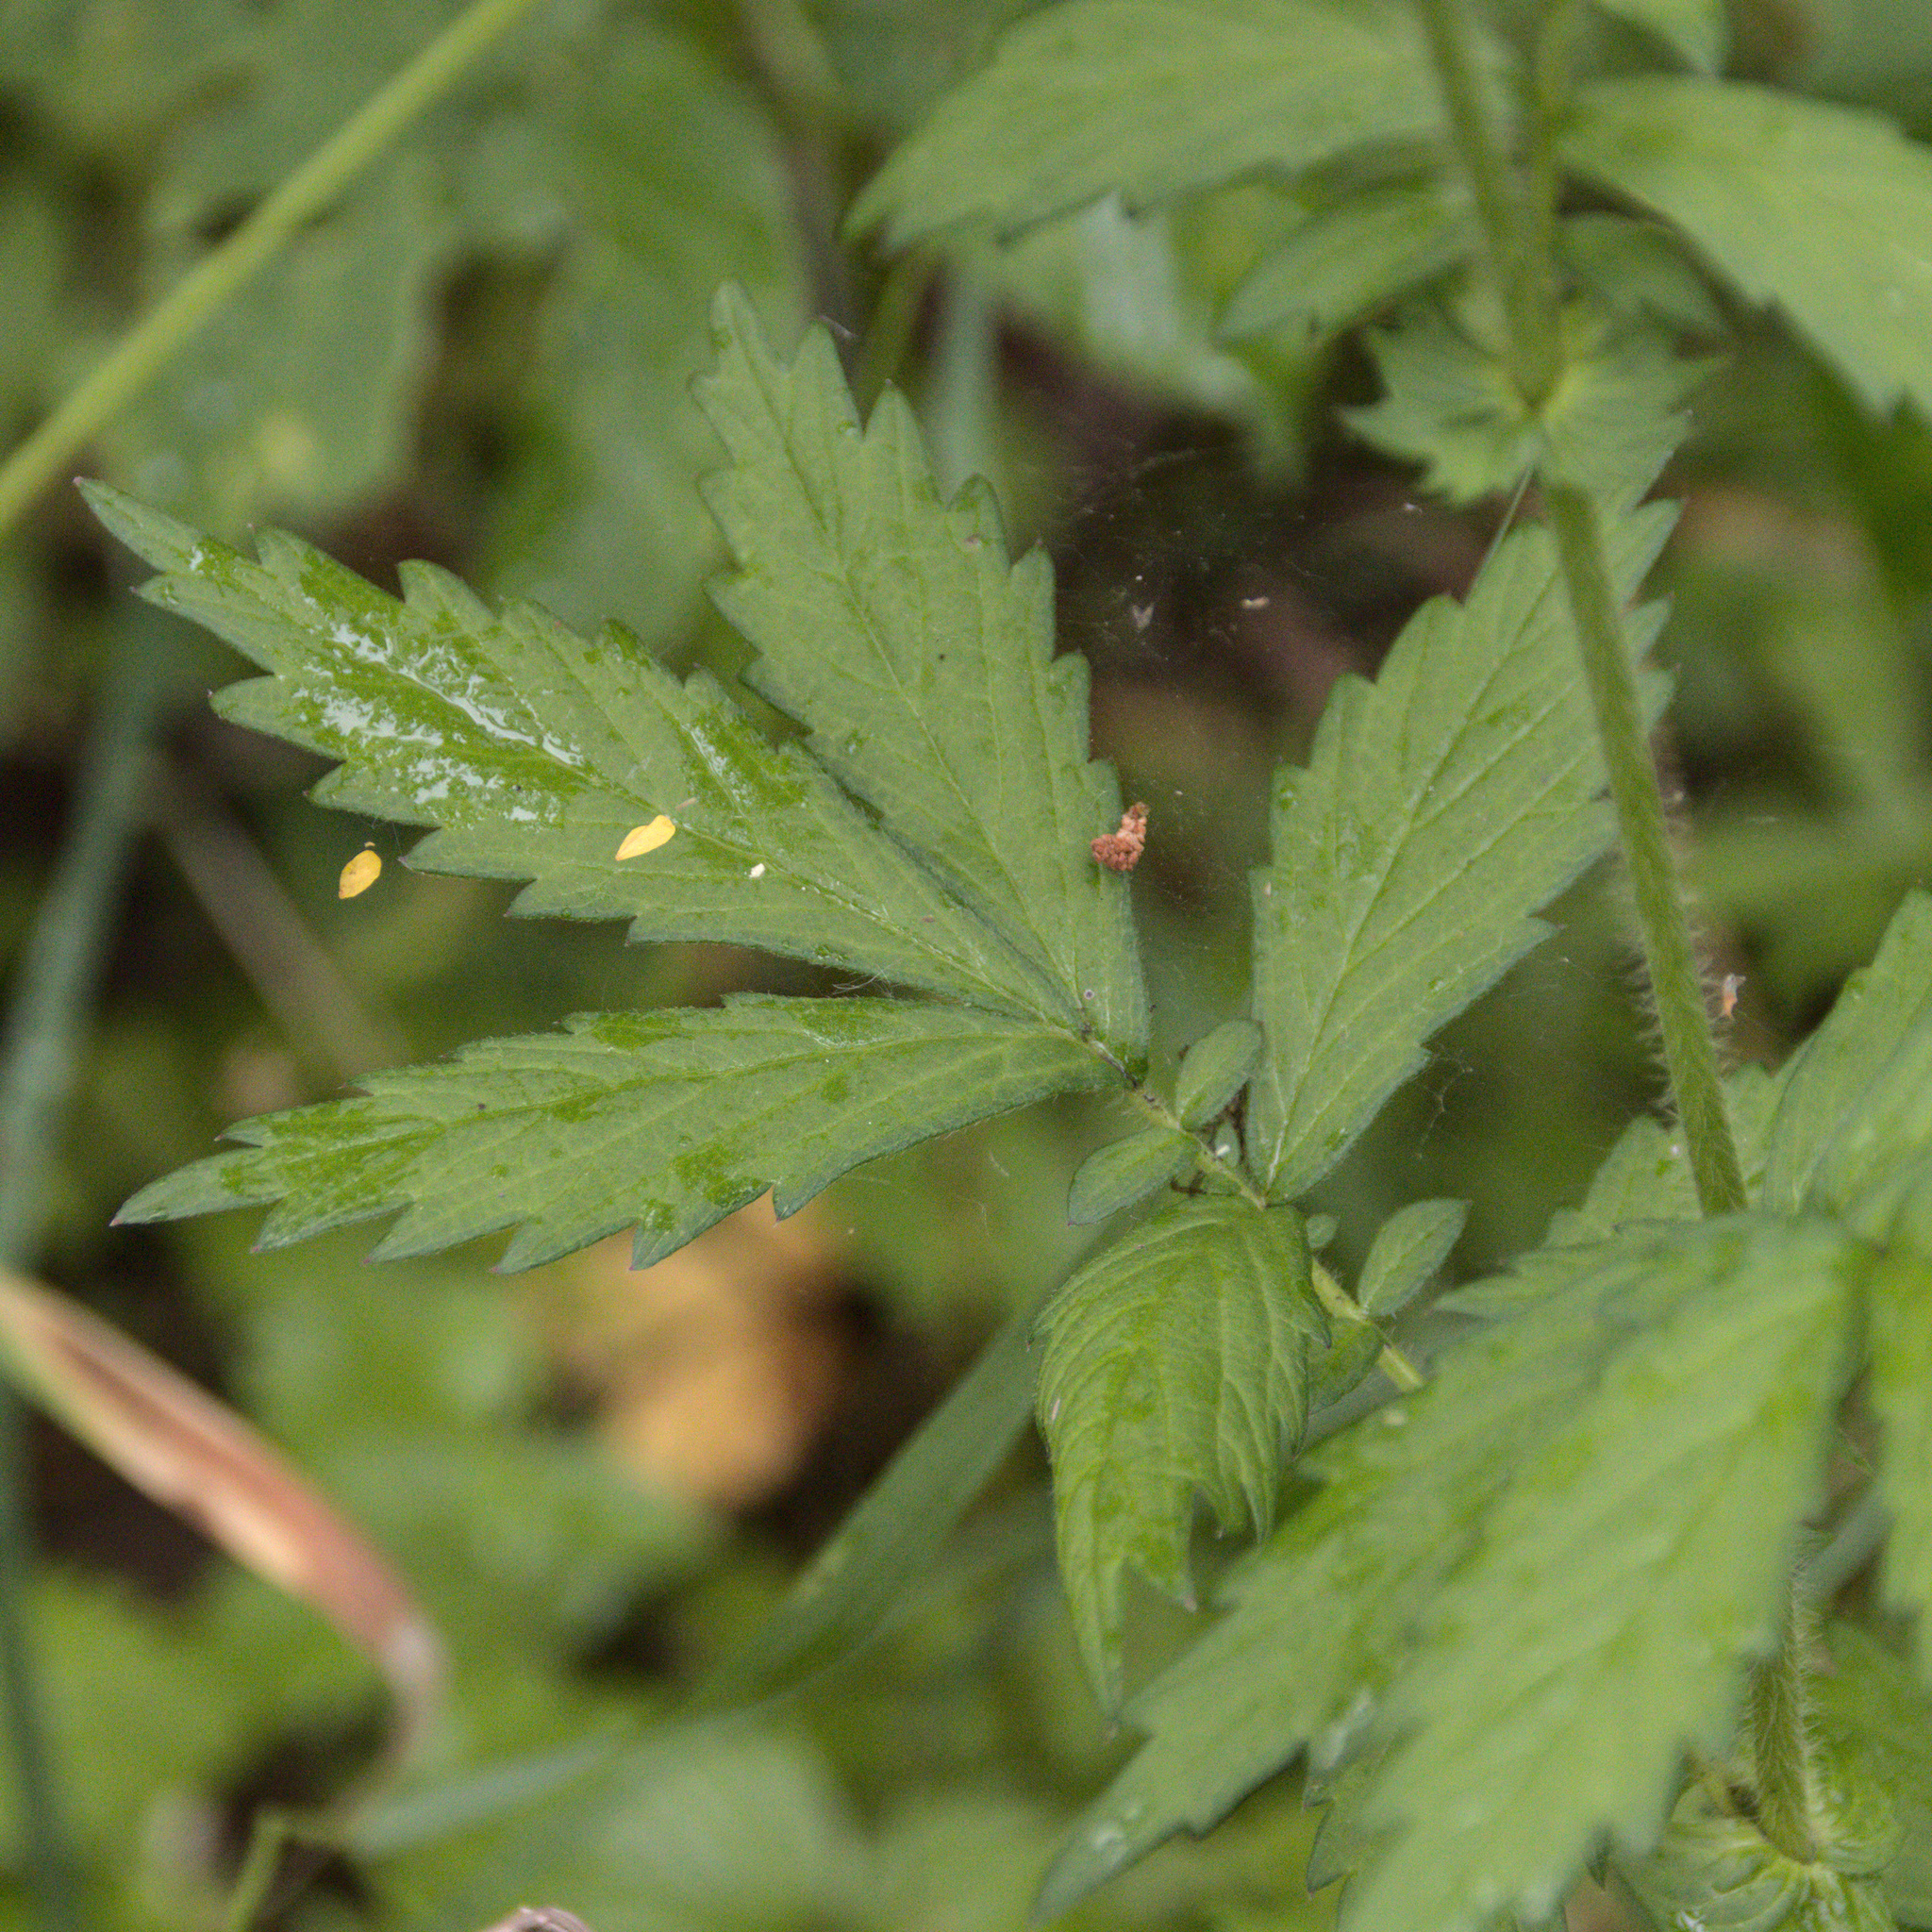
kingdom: Plantae
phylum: Tracheophyta
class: Magnoliopsida
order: Rosales
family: Rosaceae
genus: Agrimonia
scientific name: Agrimonia pilosa
